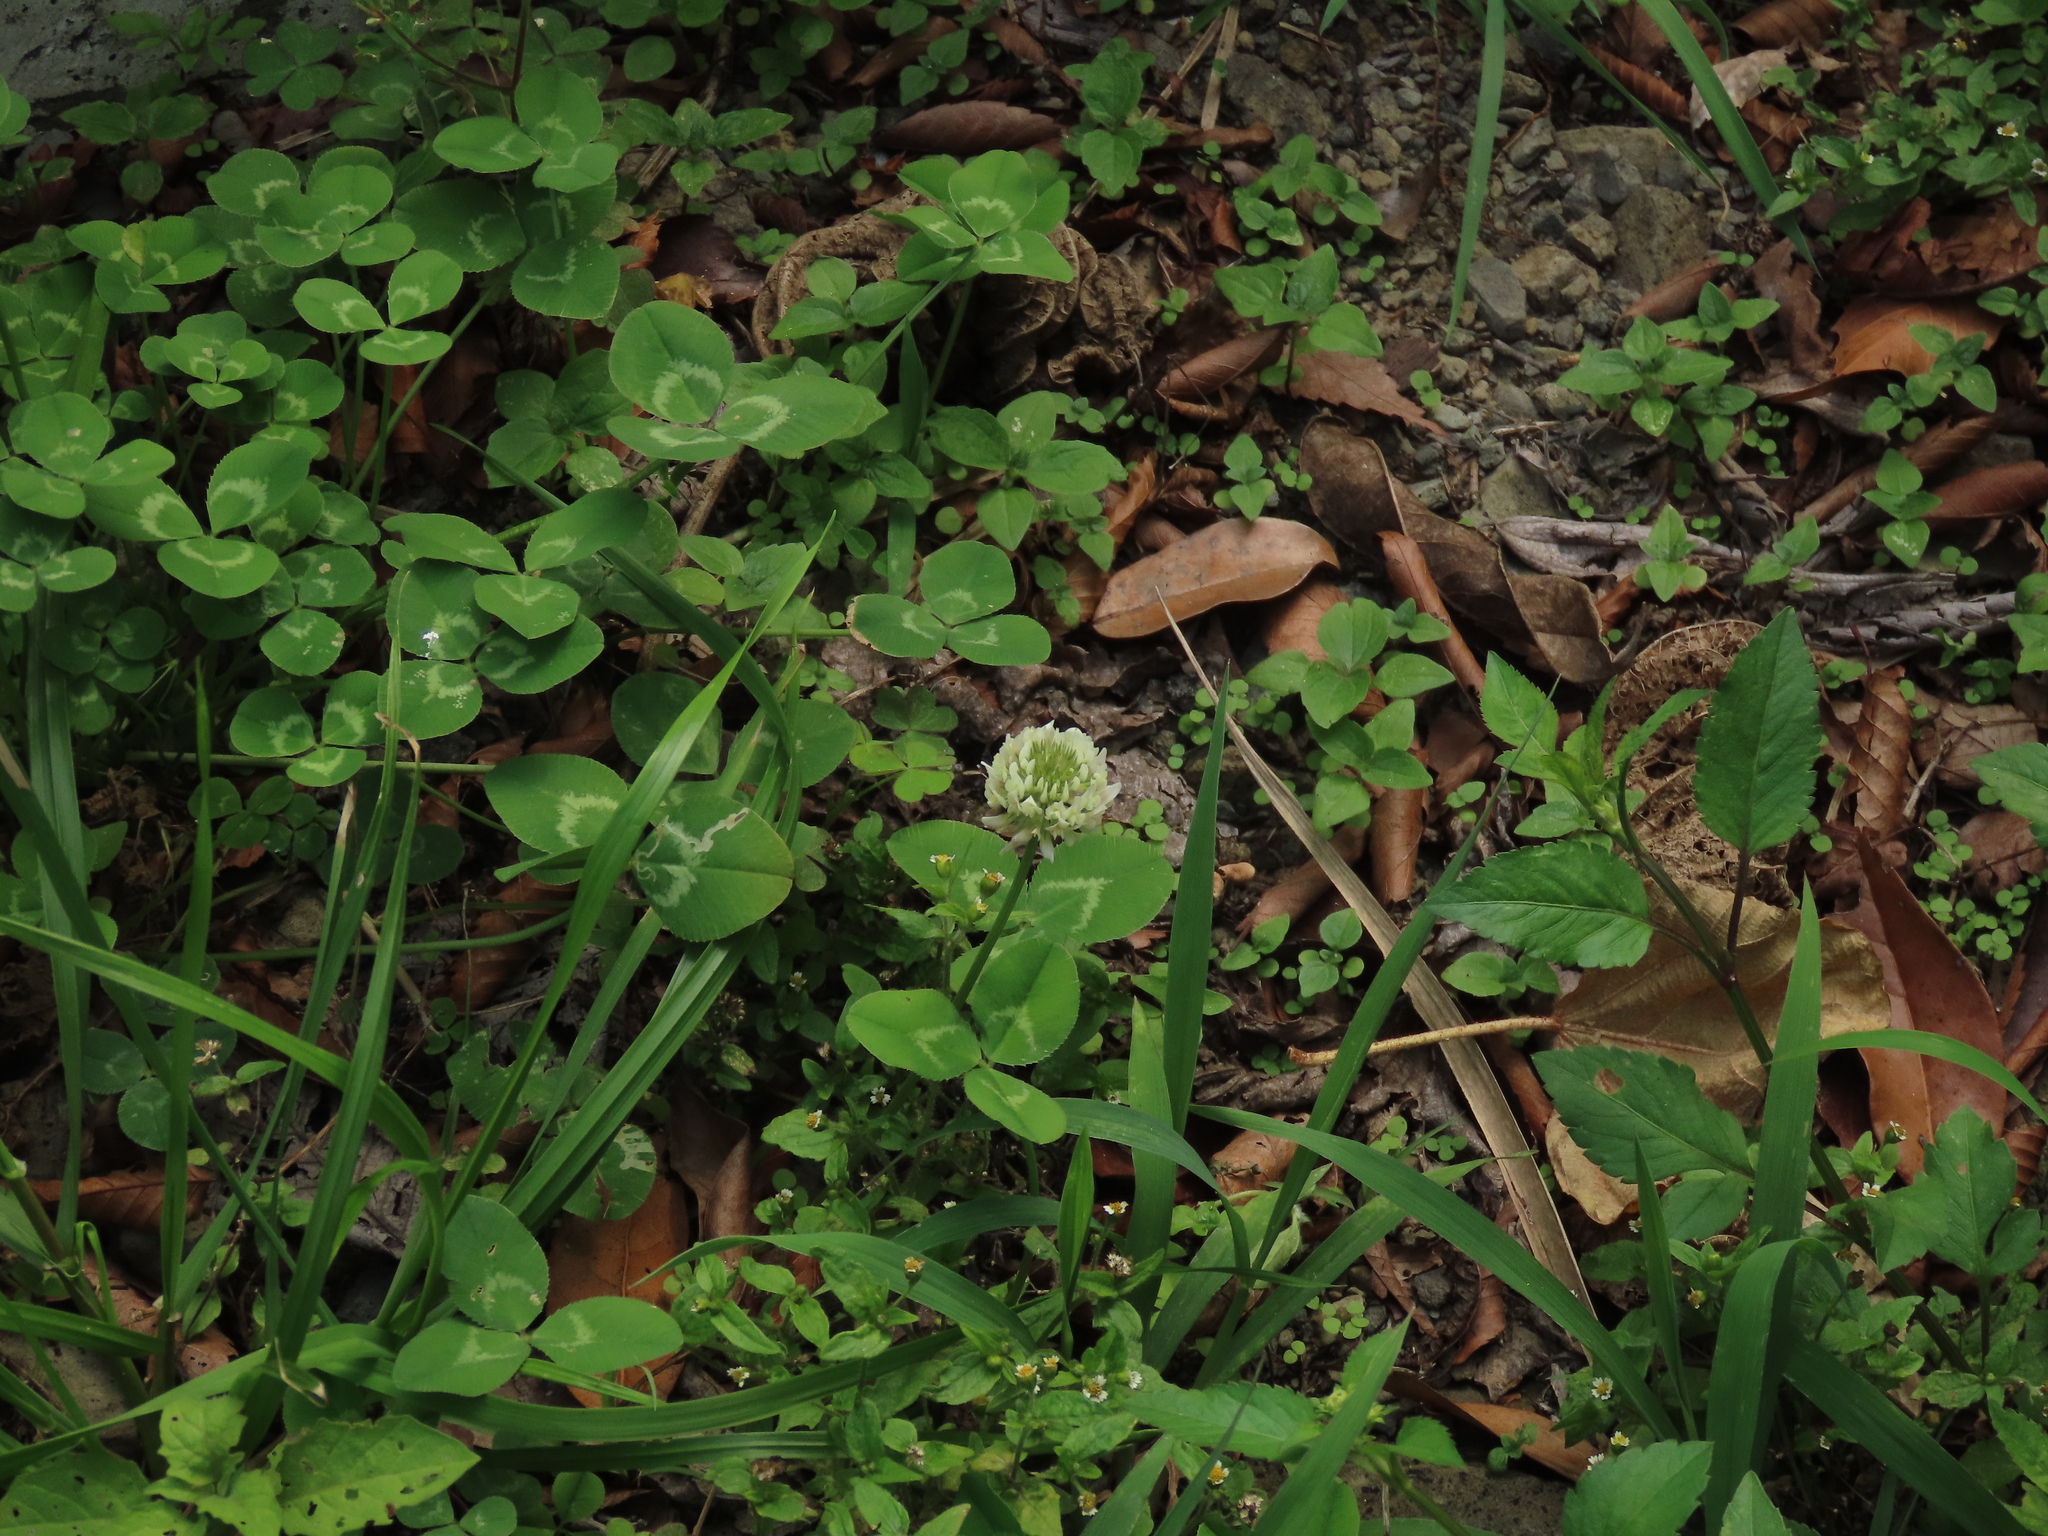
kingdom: Plantae
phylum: Tracheophyta
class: Magnoliopsida
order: Fabales
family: Fabaceae
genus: Trifolium
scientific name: Trifolium repens
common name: White clover
